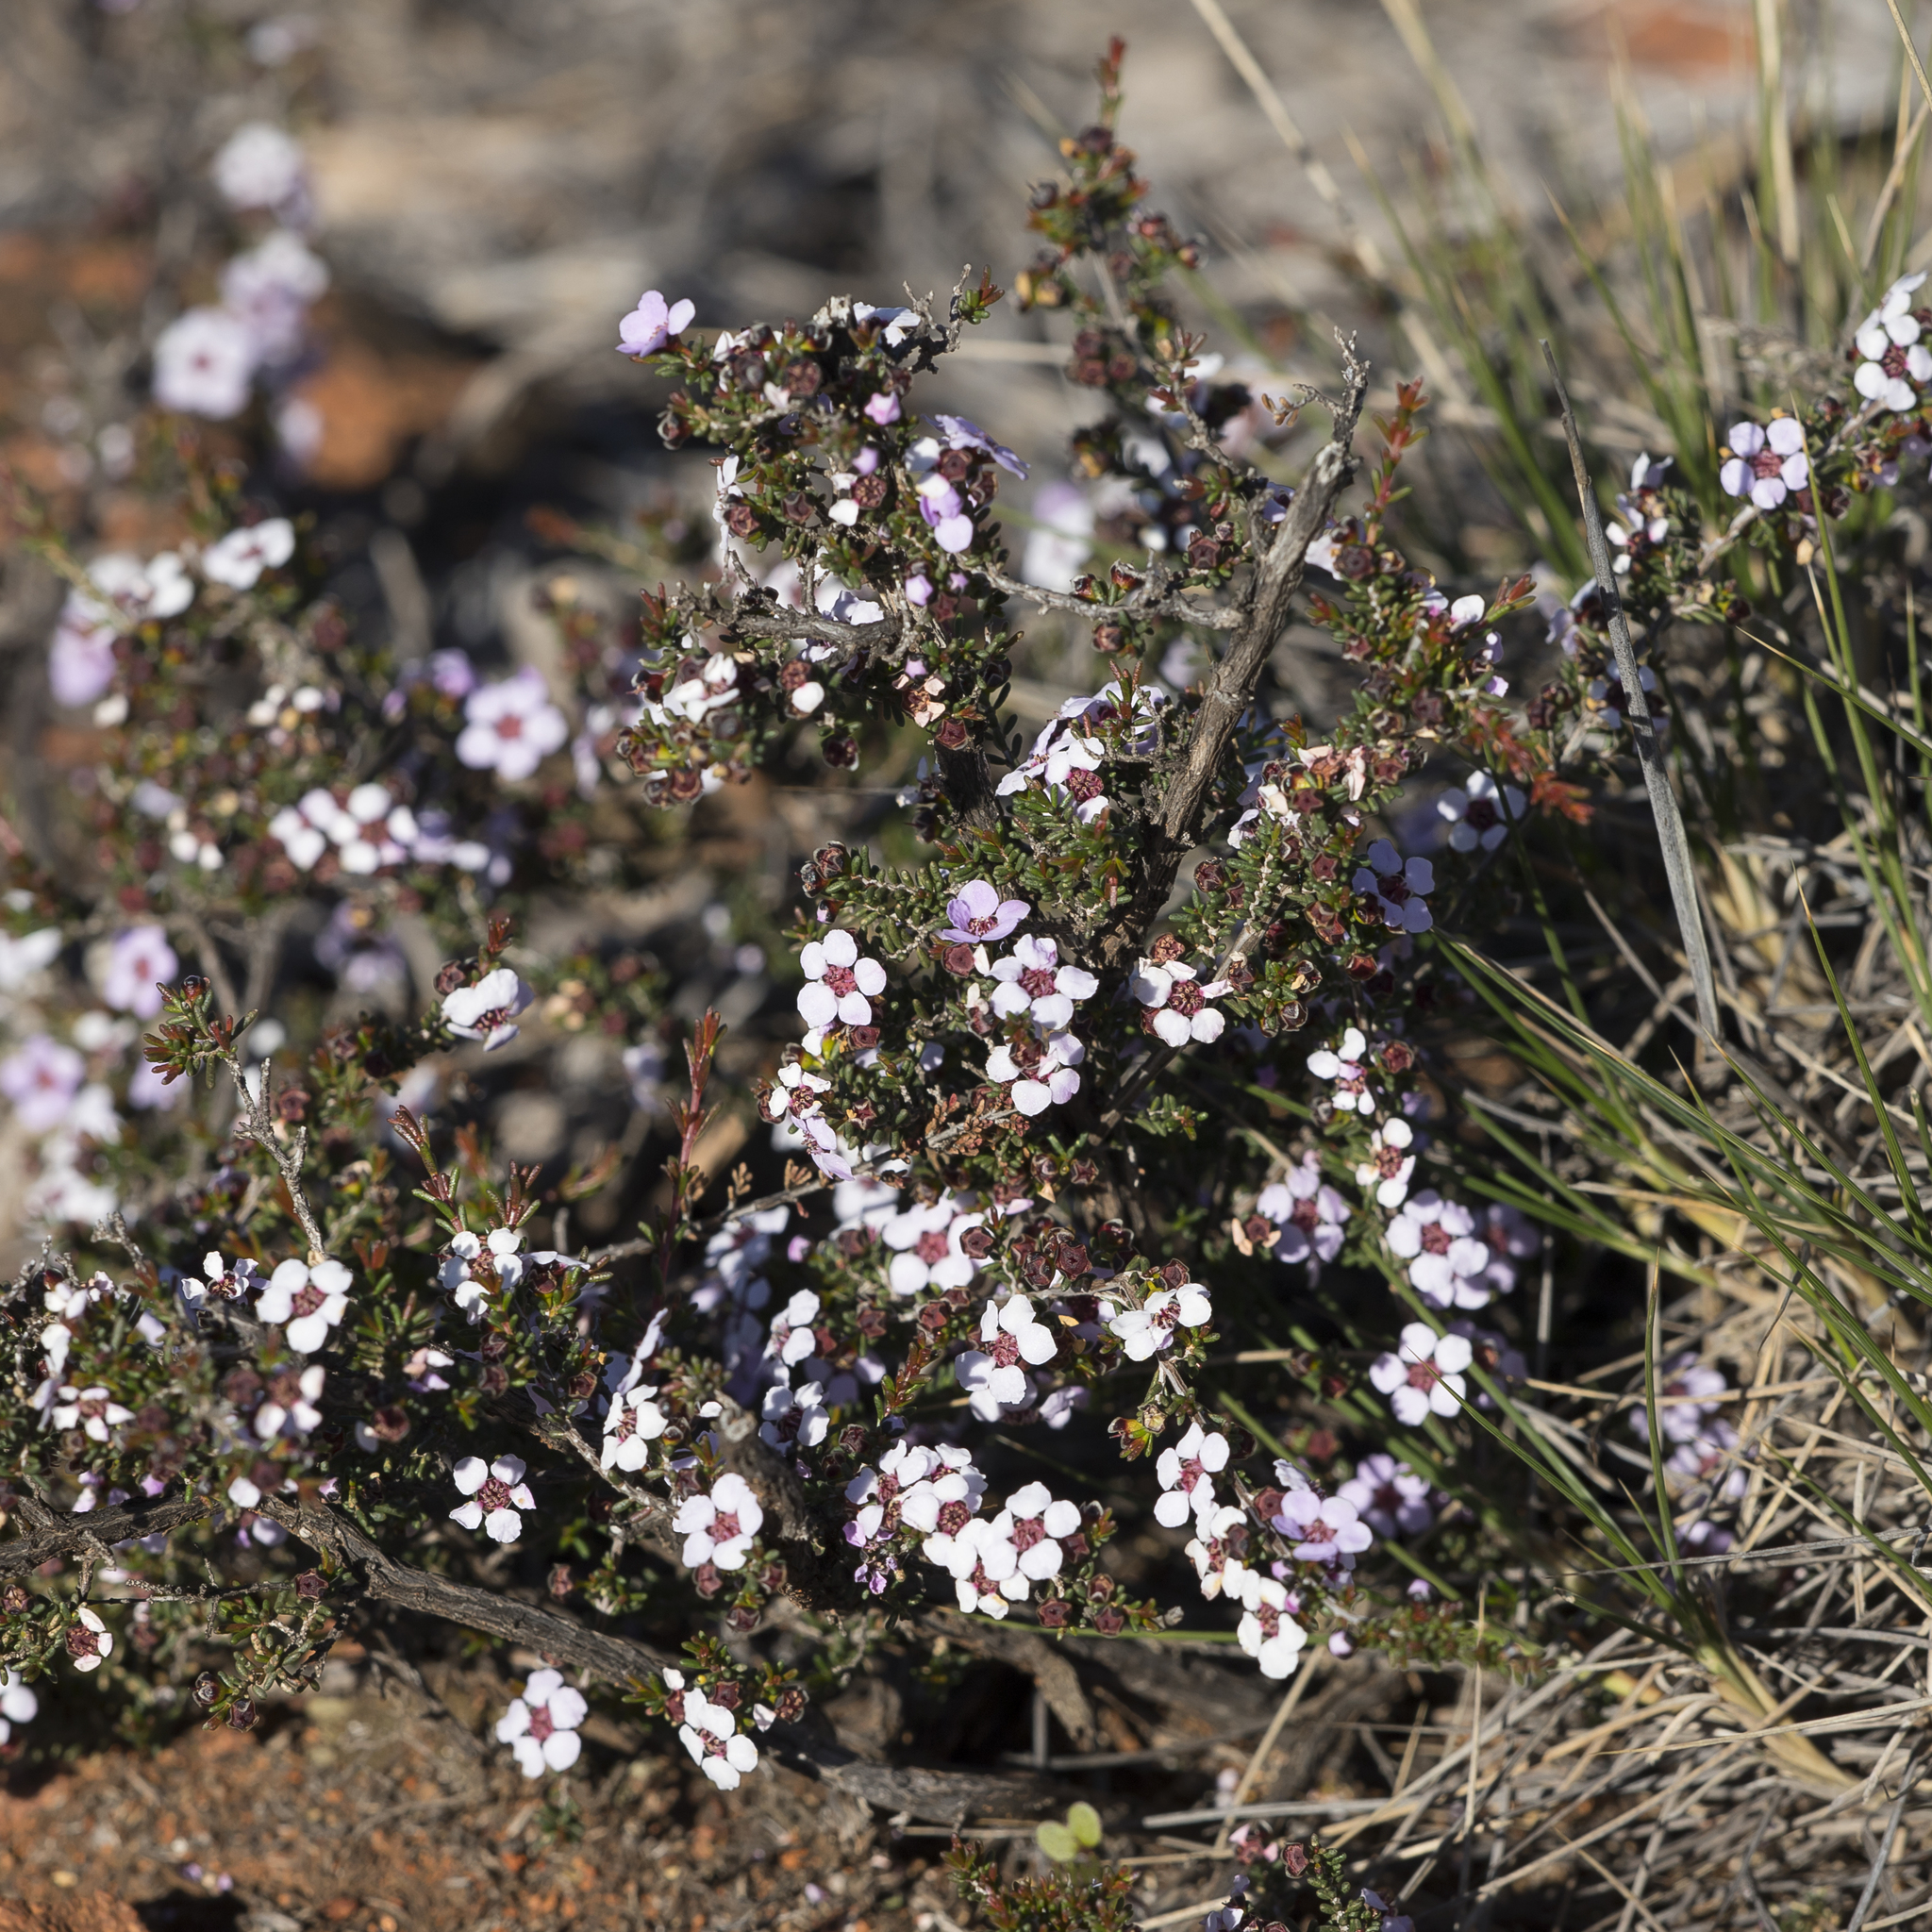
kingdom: Plantae
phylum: Tracheophyta
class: Magnoliopsida
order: Myrtales
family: Myrtaceae
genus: Rinzia
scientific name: Rinzia orientalis
